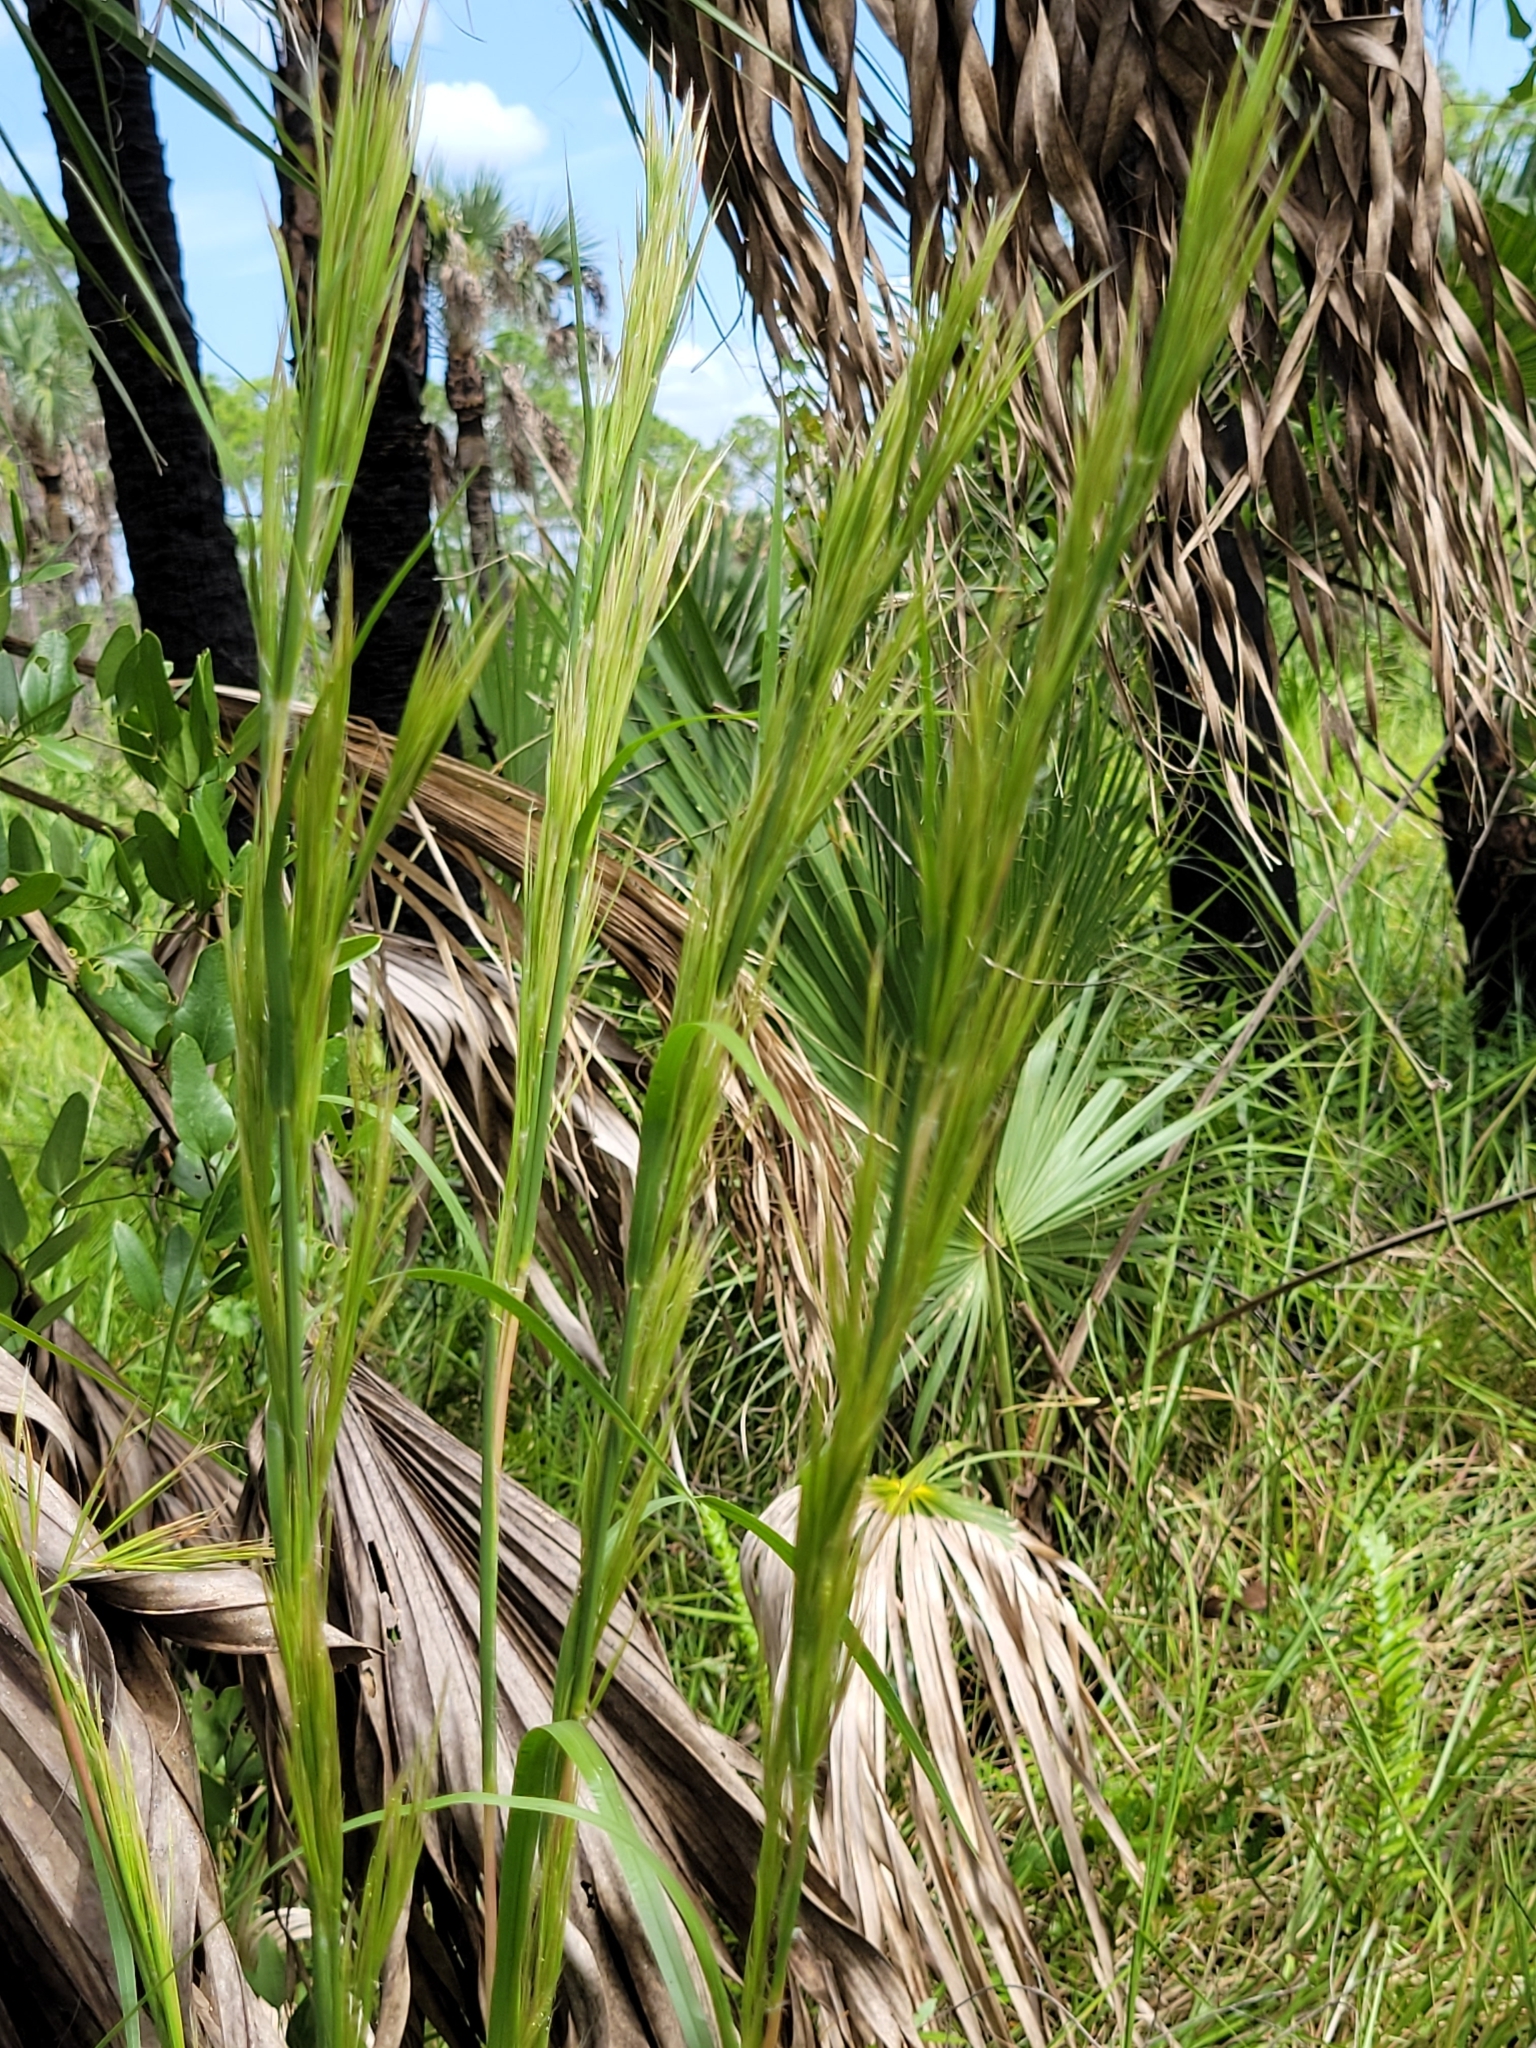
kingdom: Plantae
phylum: Tracheophyta
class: Liliopsida
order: Poales
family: Poaceae
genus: Andropogon
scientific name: Andropogon tenuispatheus
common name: Bushy bluestem
